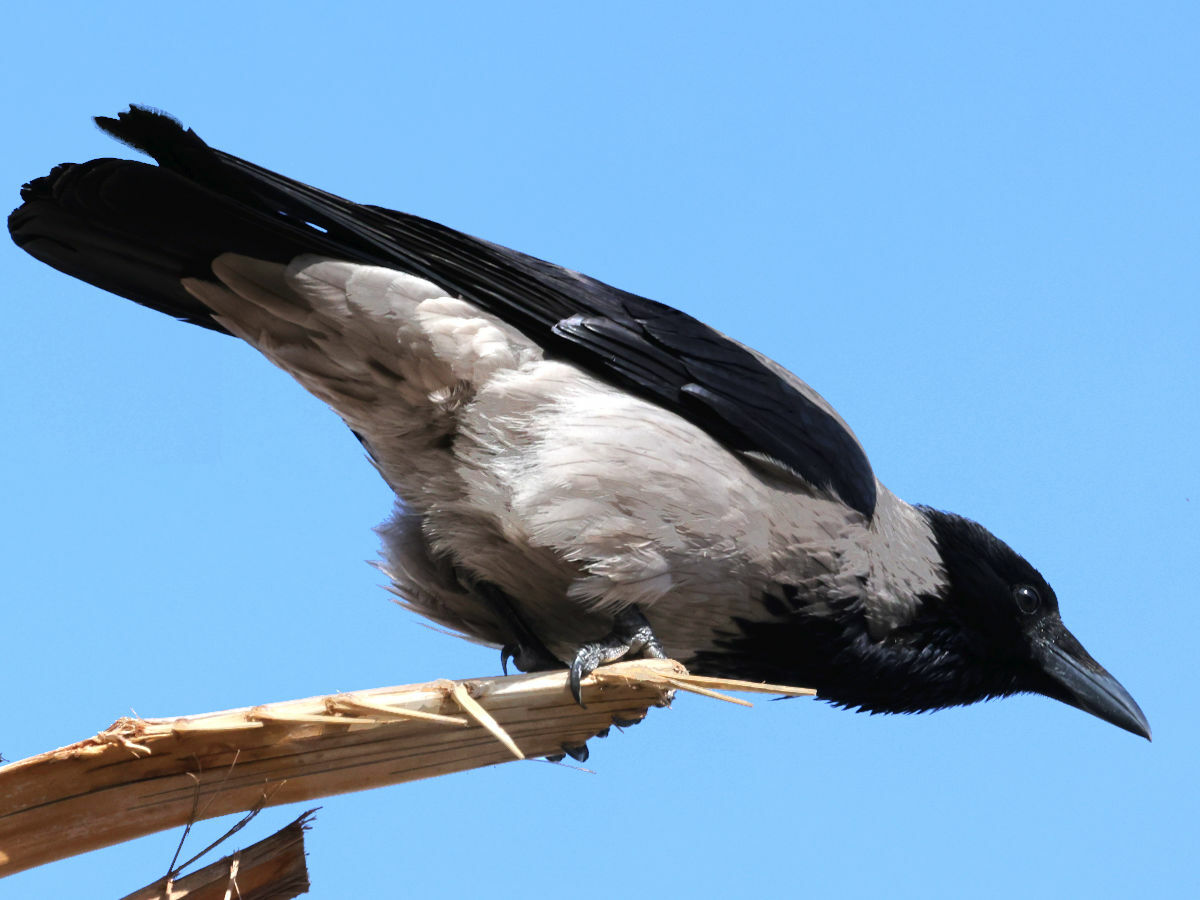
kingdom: Animalia
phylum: Chordata
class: Aves
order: Passeriformes
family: Corvidae
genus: Corvus
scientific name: Corvus cornix
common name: Hooded crow
